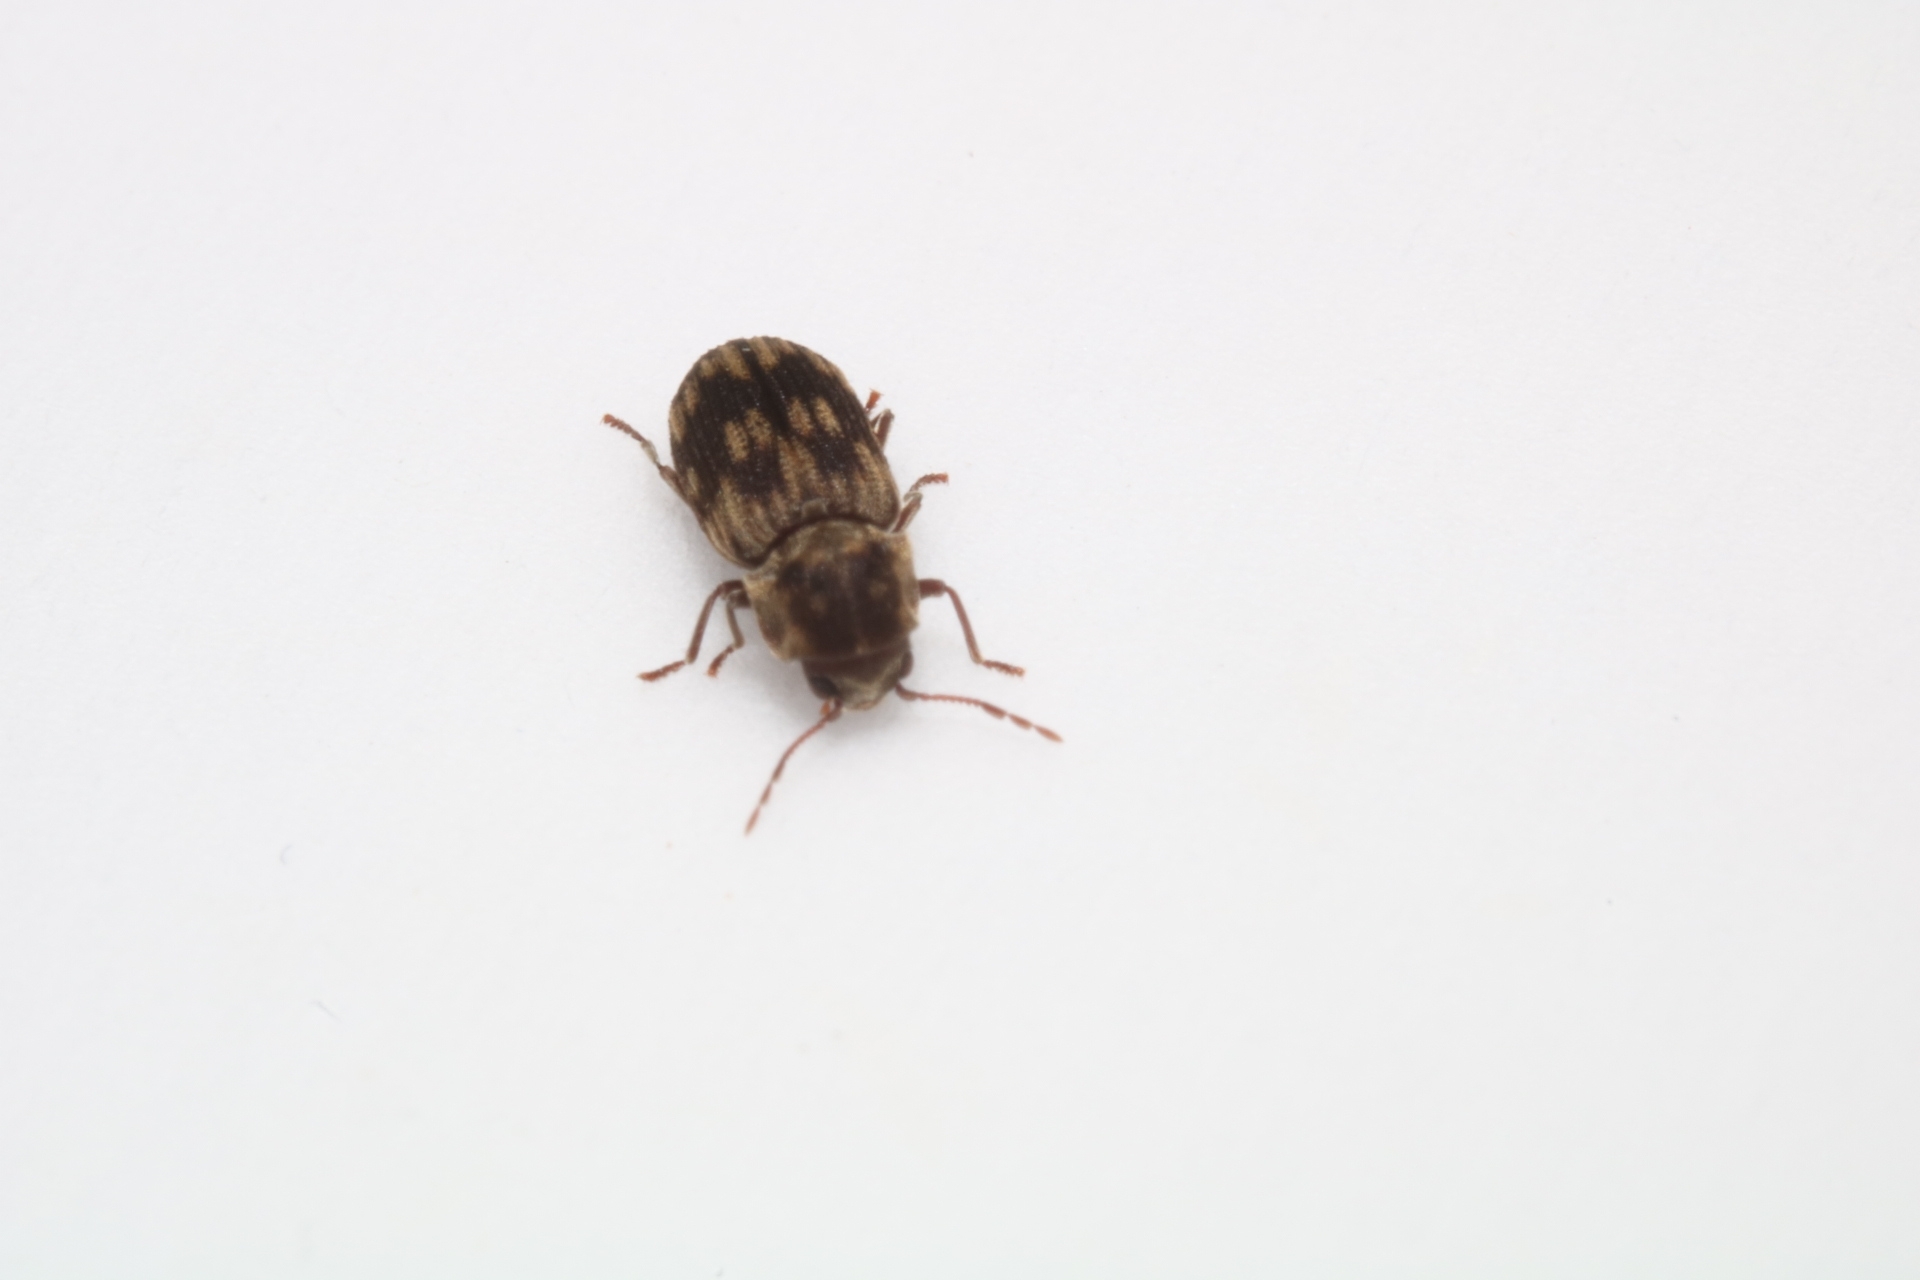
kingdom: Animalia
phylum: Arthropoda
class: Insecta
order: Coleoptera
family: Anobiidae
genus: Hadrobregmus
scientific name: Hadrobregmus notatus
